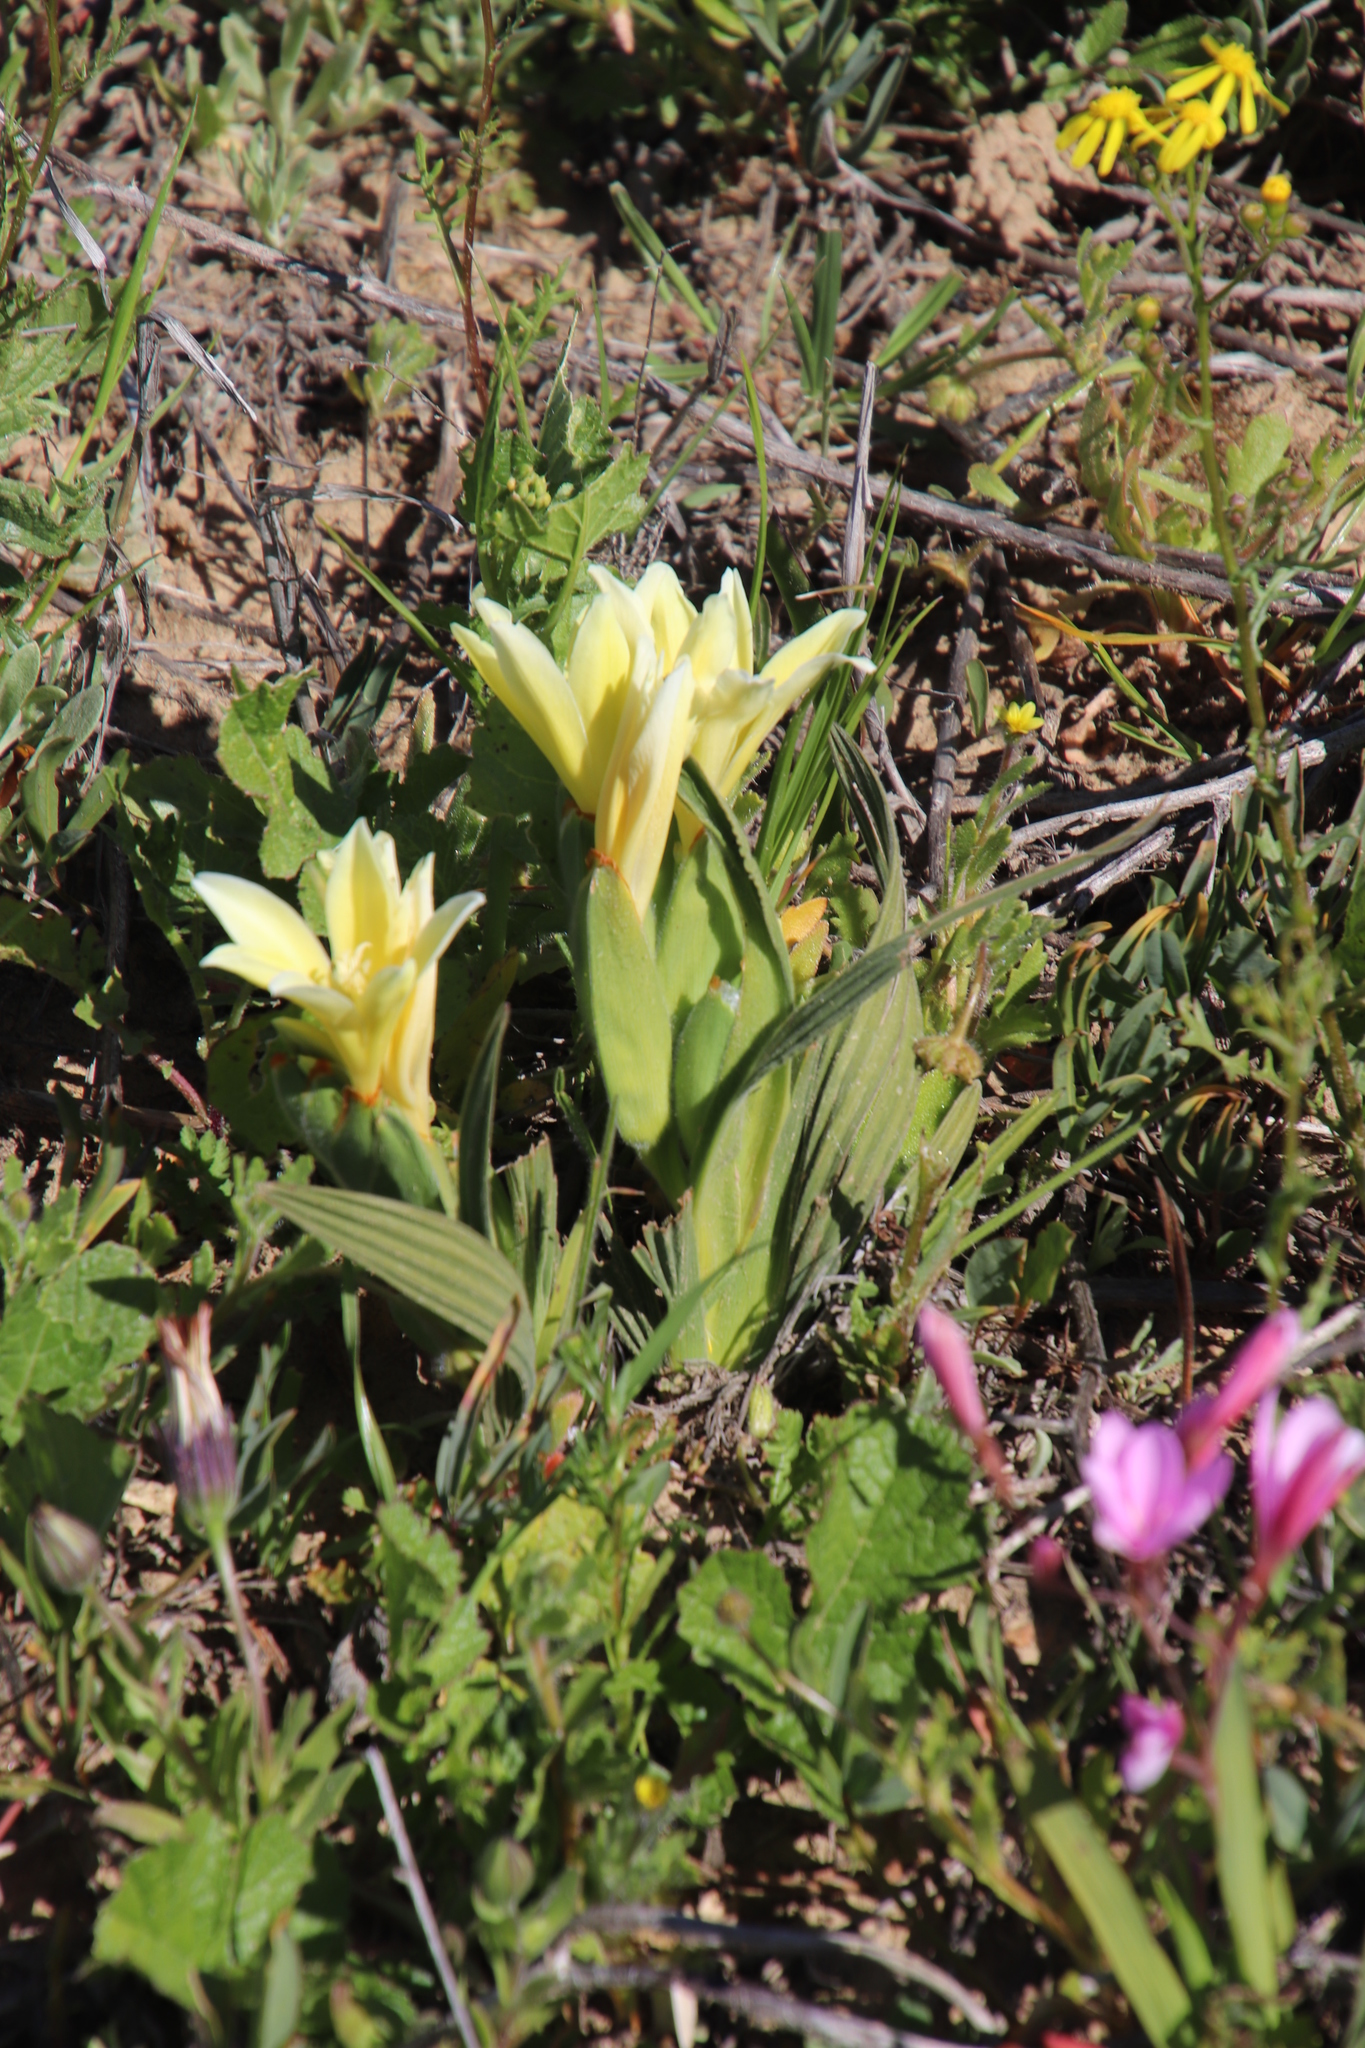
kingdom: Plantae
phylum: Tracheophyta
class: Liliopsida
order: Asparagales
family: Iridaceae
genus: Babiana
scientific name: Babiana vanzijliae
